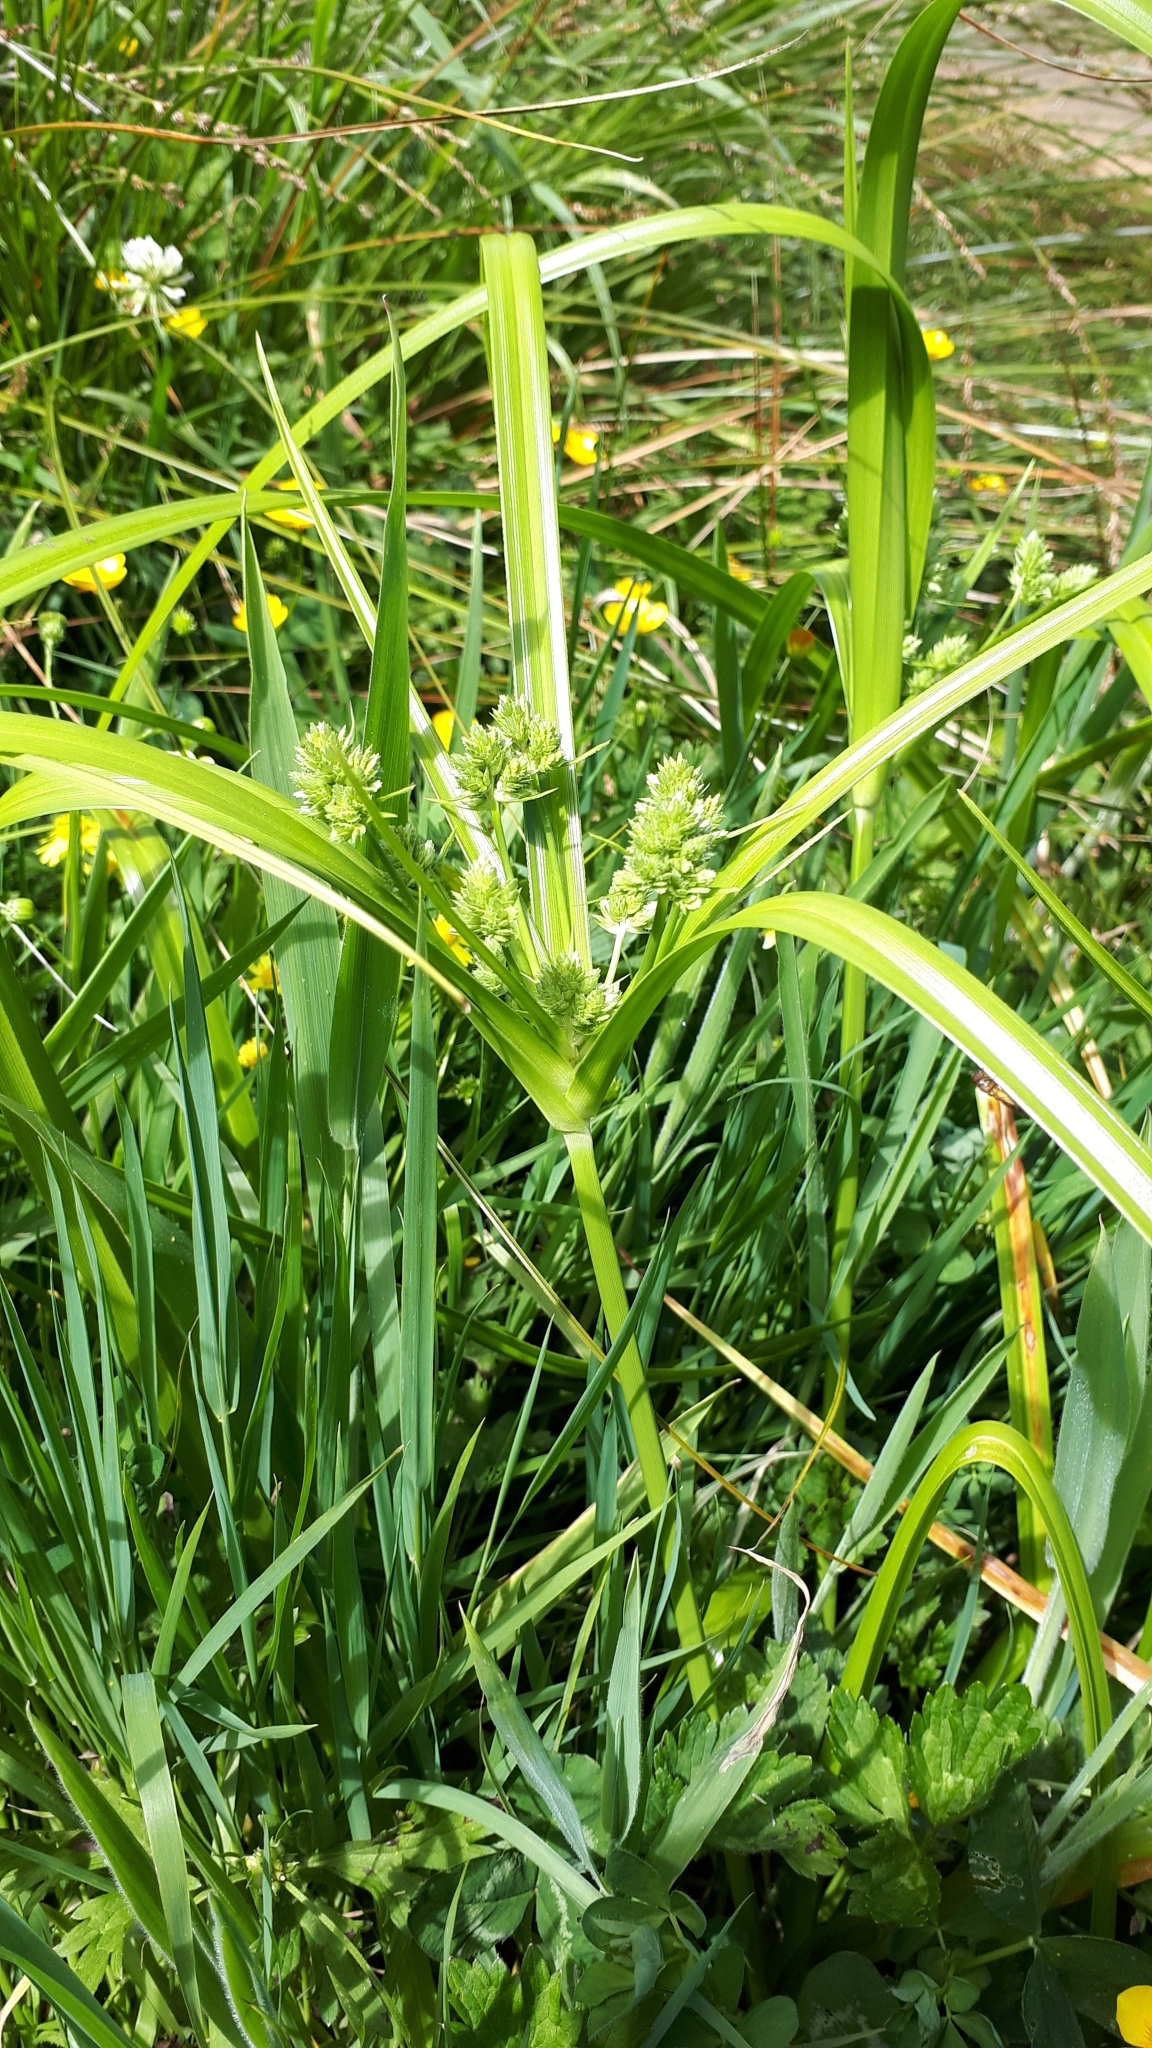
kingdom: Plantae
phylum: Tracheophyta
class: Liliopsida
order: Poales
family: Cyperaceae
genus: Cyperus
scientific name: Cyperus eragrostis
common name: Tall flatsedge
